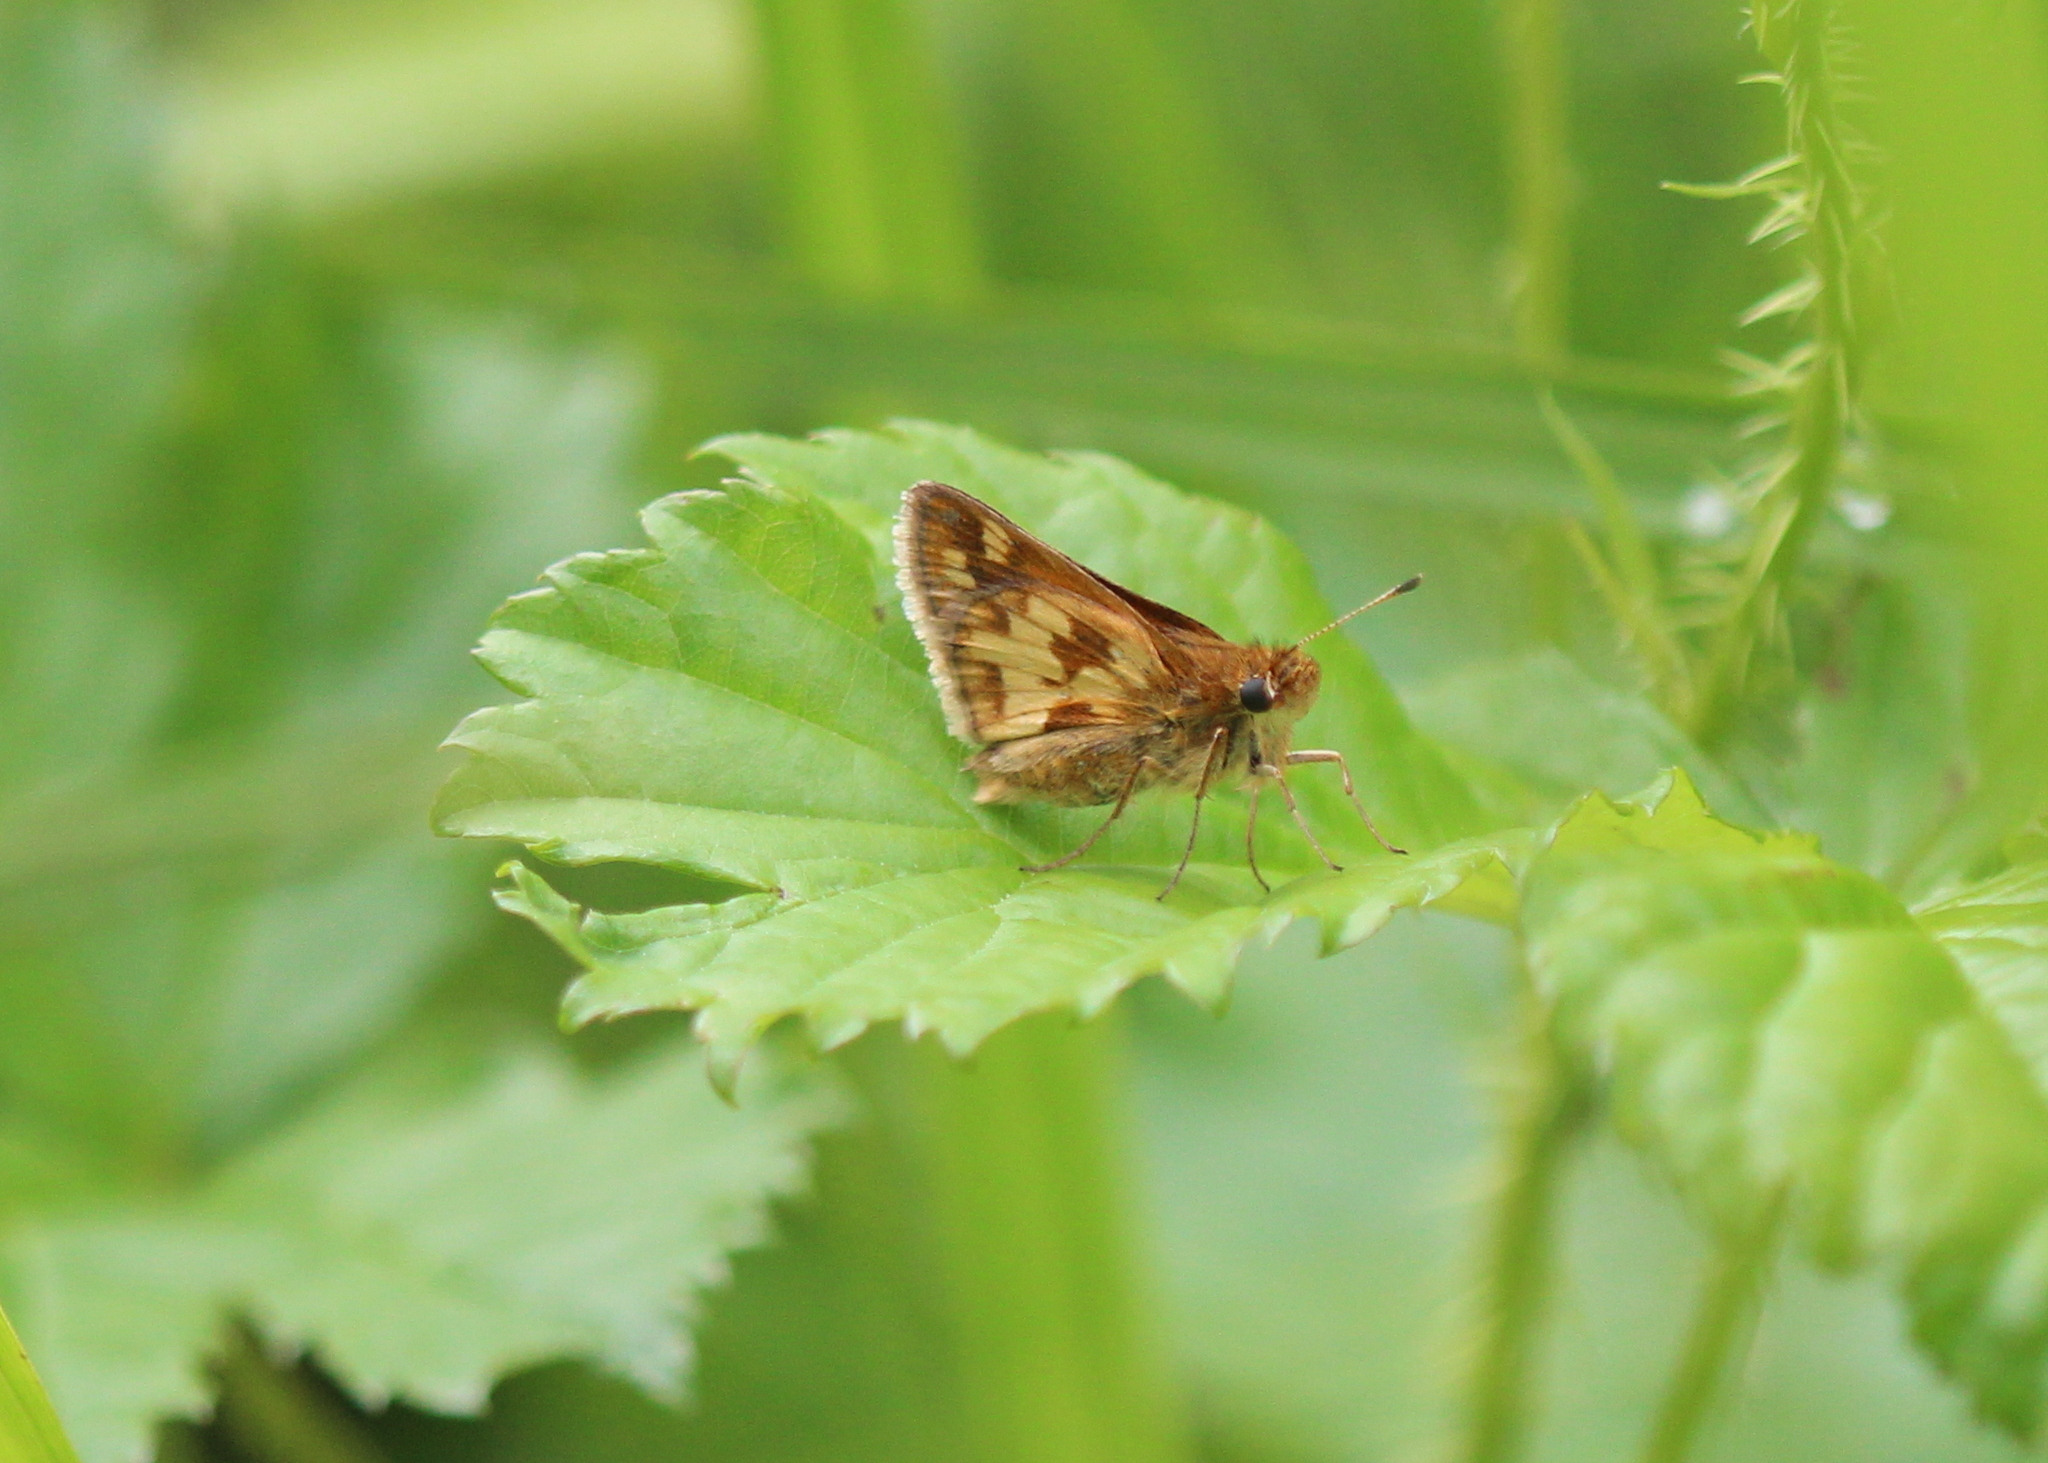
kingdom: Animalia
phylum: Arthropoda
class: Insecta
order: Lepidoptera
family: Hesperiidae
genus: Polites
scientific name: Polites coras
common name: Peck's skipper
